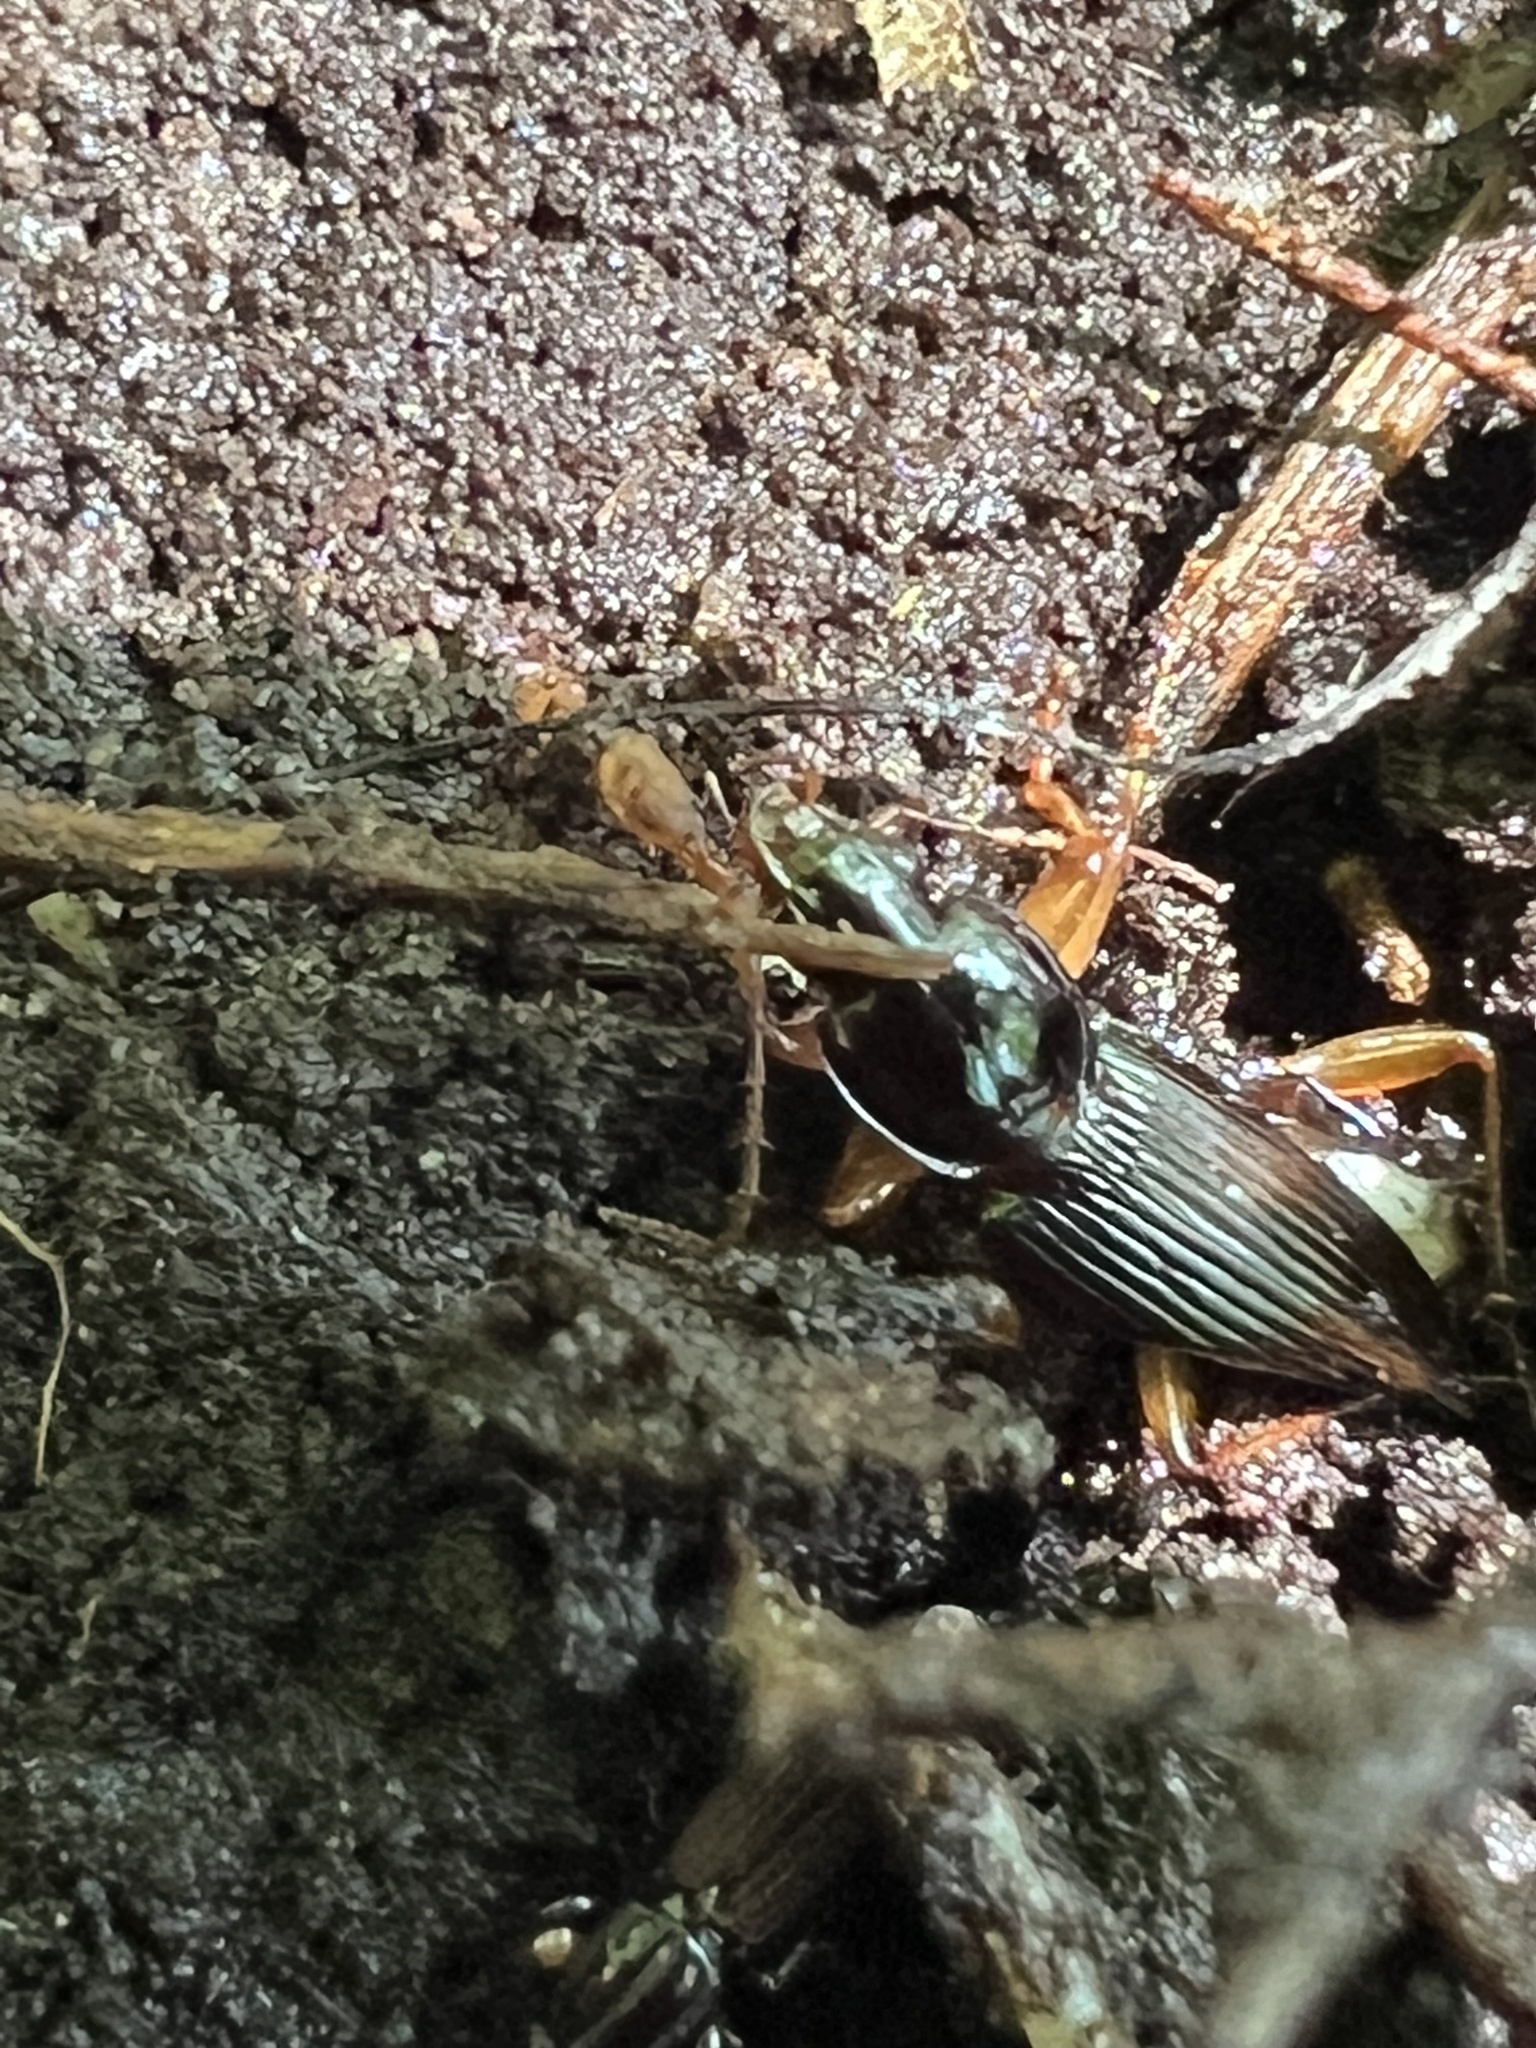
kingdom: Animalia
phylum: Arthropoda
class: Insecta
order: Coleoptera
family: Carabidae
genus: Synuchus
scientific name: Synuchus impunctatus
